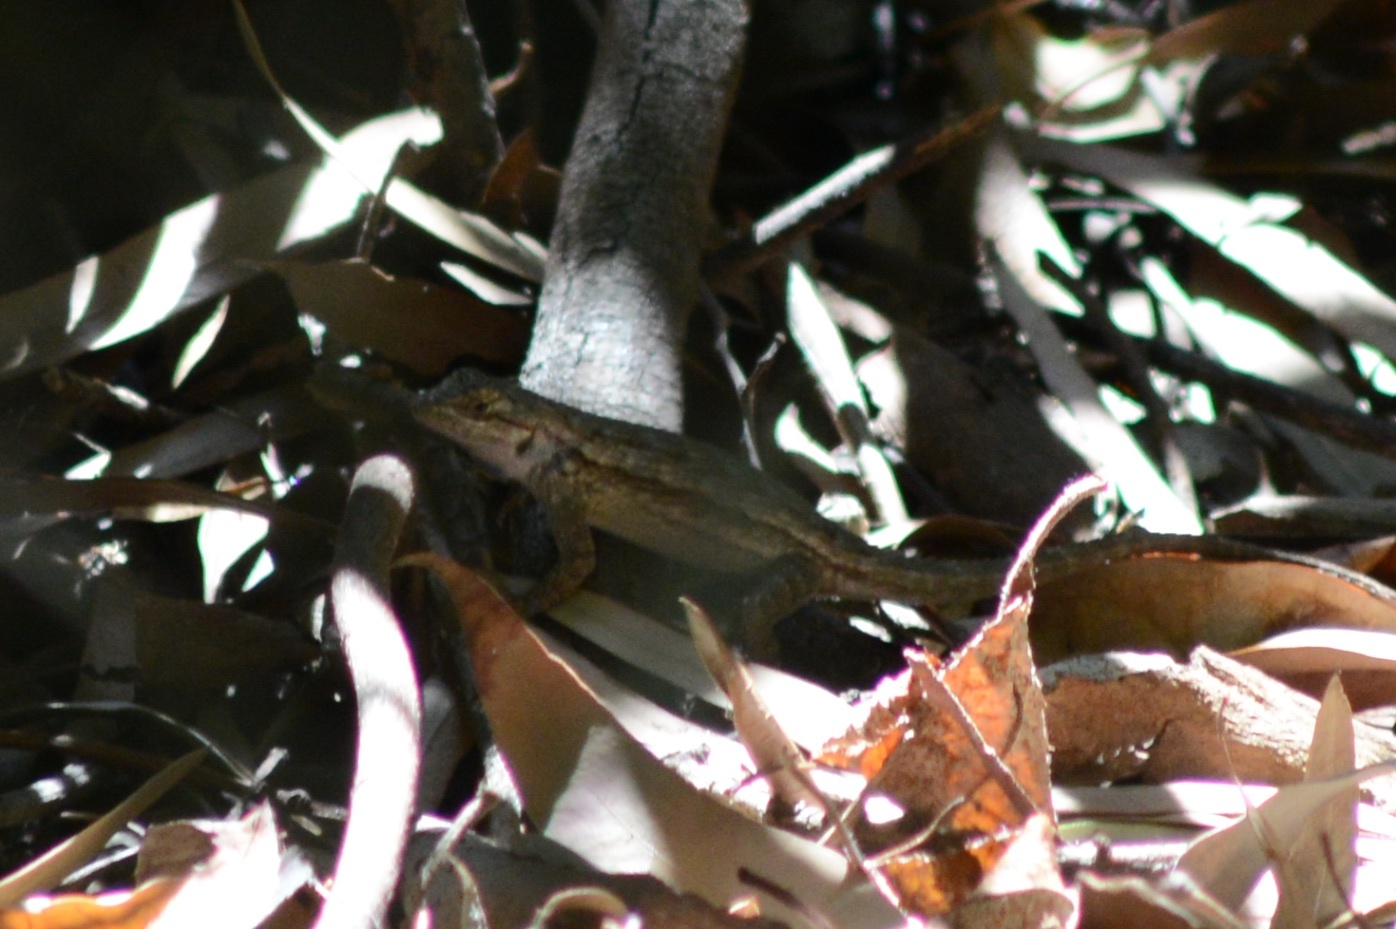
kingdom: Animalia
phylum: Chordata
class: Squamata
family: Phrynosomatidae
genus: Sceloporus
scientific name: Sceloporus occidentalis
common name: Western fence lizard
